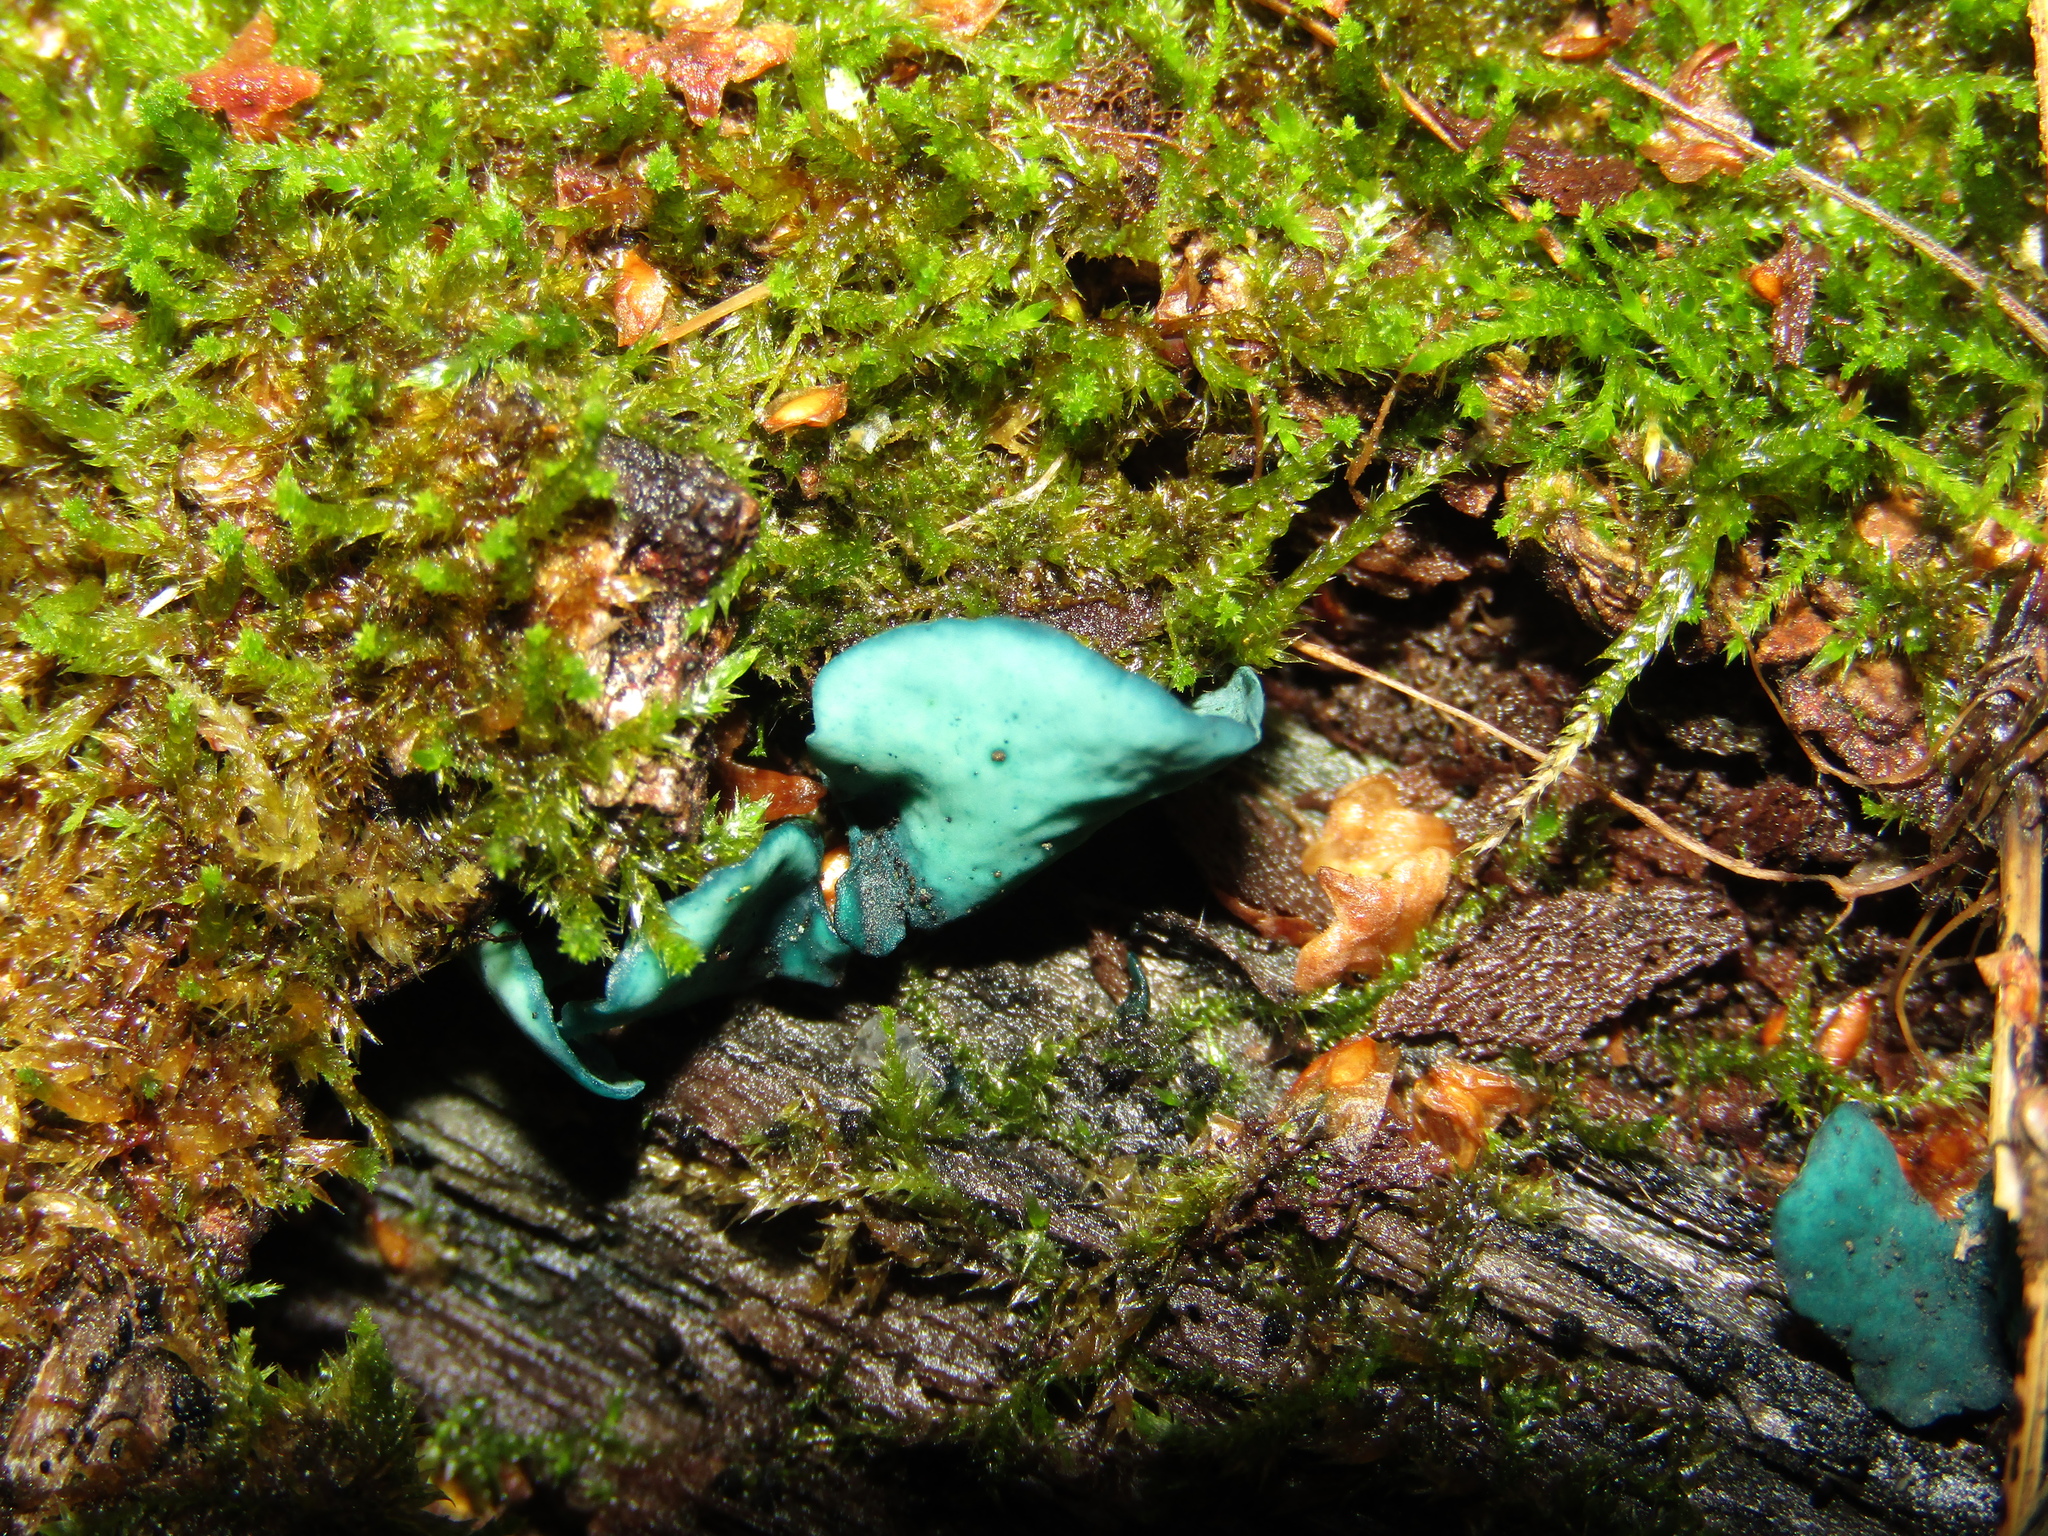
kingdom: Fungi
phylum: Ascomycota
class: Leotiomycetes
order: Helotiales
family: Chlorociboriaceae
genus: Chlorociboria
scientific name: Chlorociboria aeruginascens
